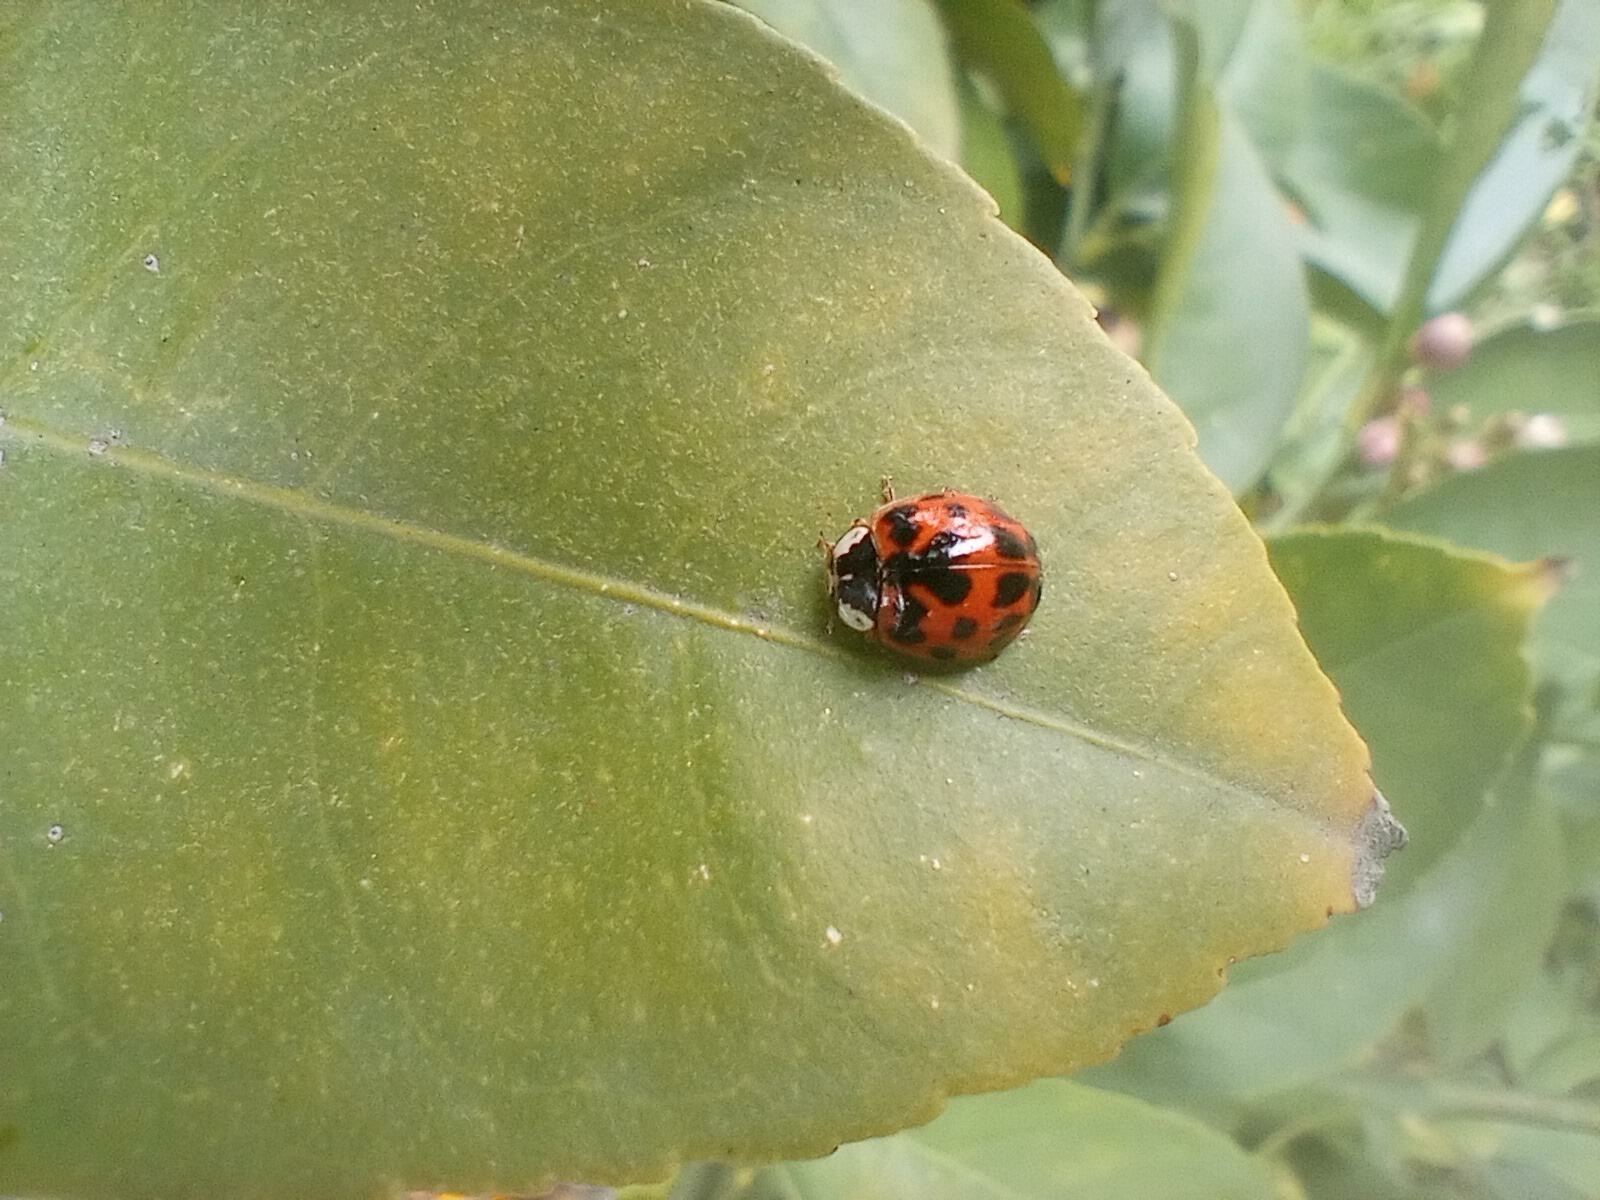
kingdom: Animalia
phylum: Arthropoda
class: Insecta
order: Coleoptera
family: Coccinellidae
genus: Harmonia
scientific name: Harmonia axyridis
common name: Harlequin ladybird
